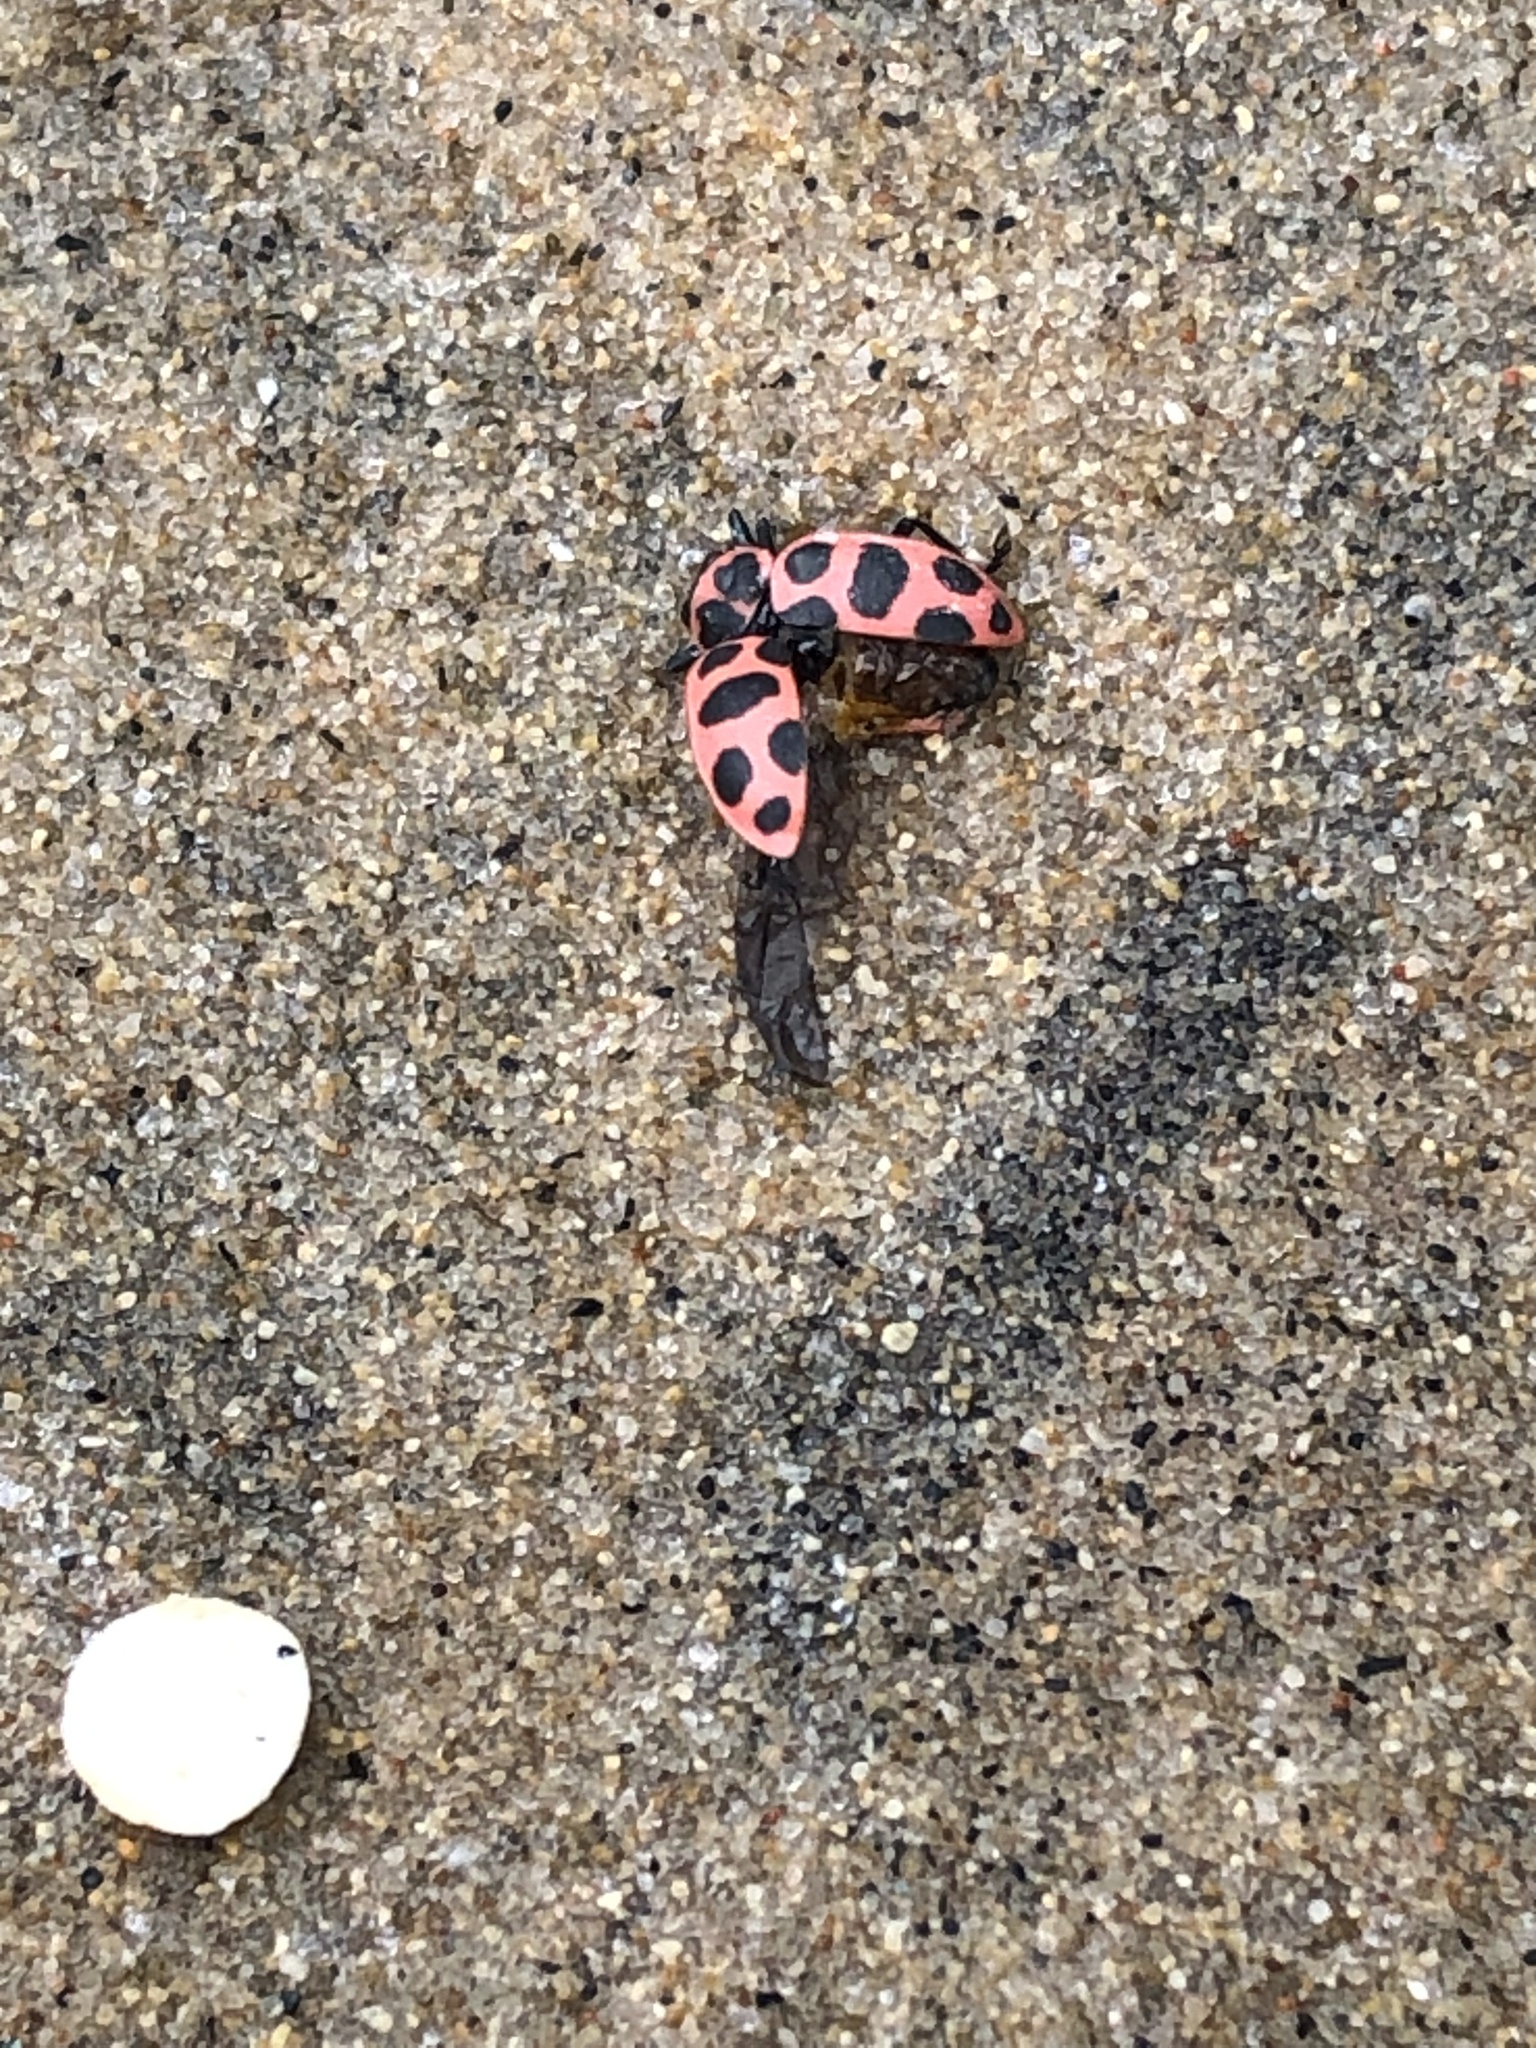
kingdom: Animalia
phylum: Arthropoda
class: Insecta
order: Coleoptera
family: Coccinellidae
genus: Coleomegilla
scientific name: Coleomegilla maculata
